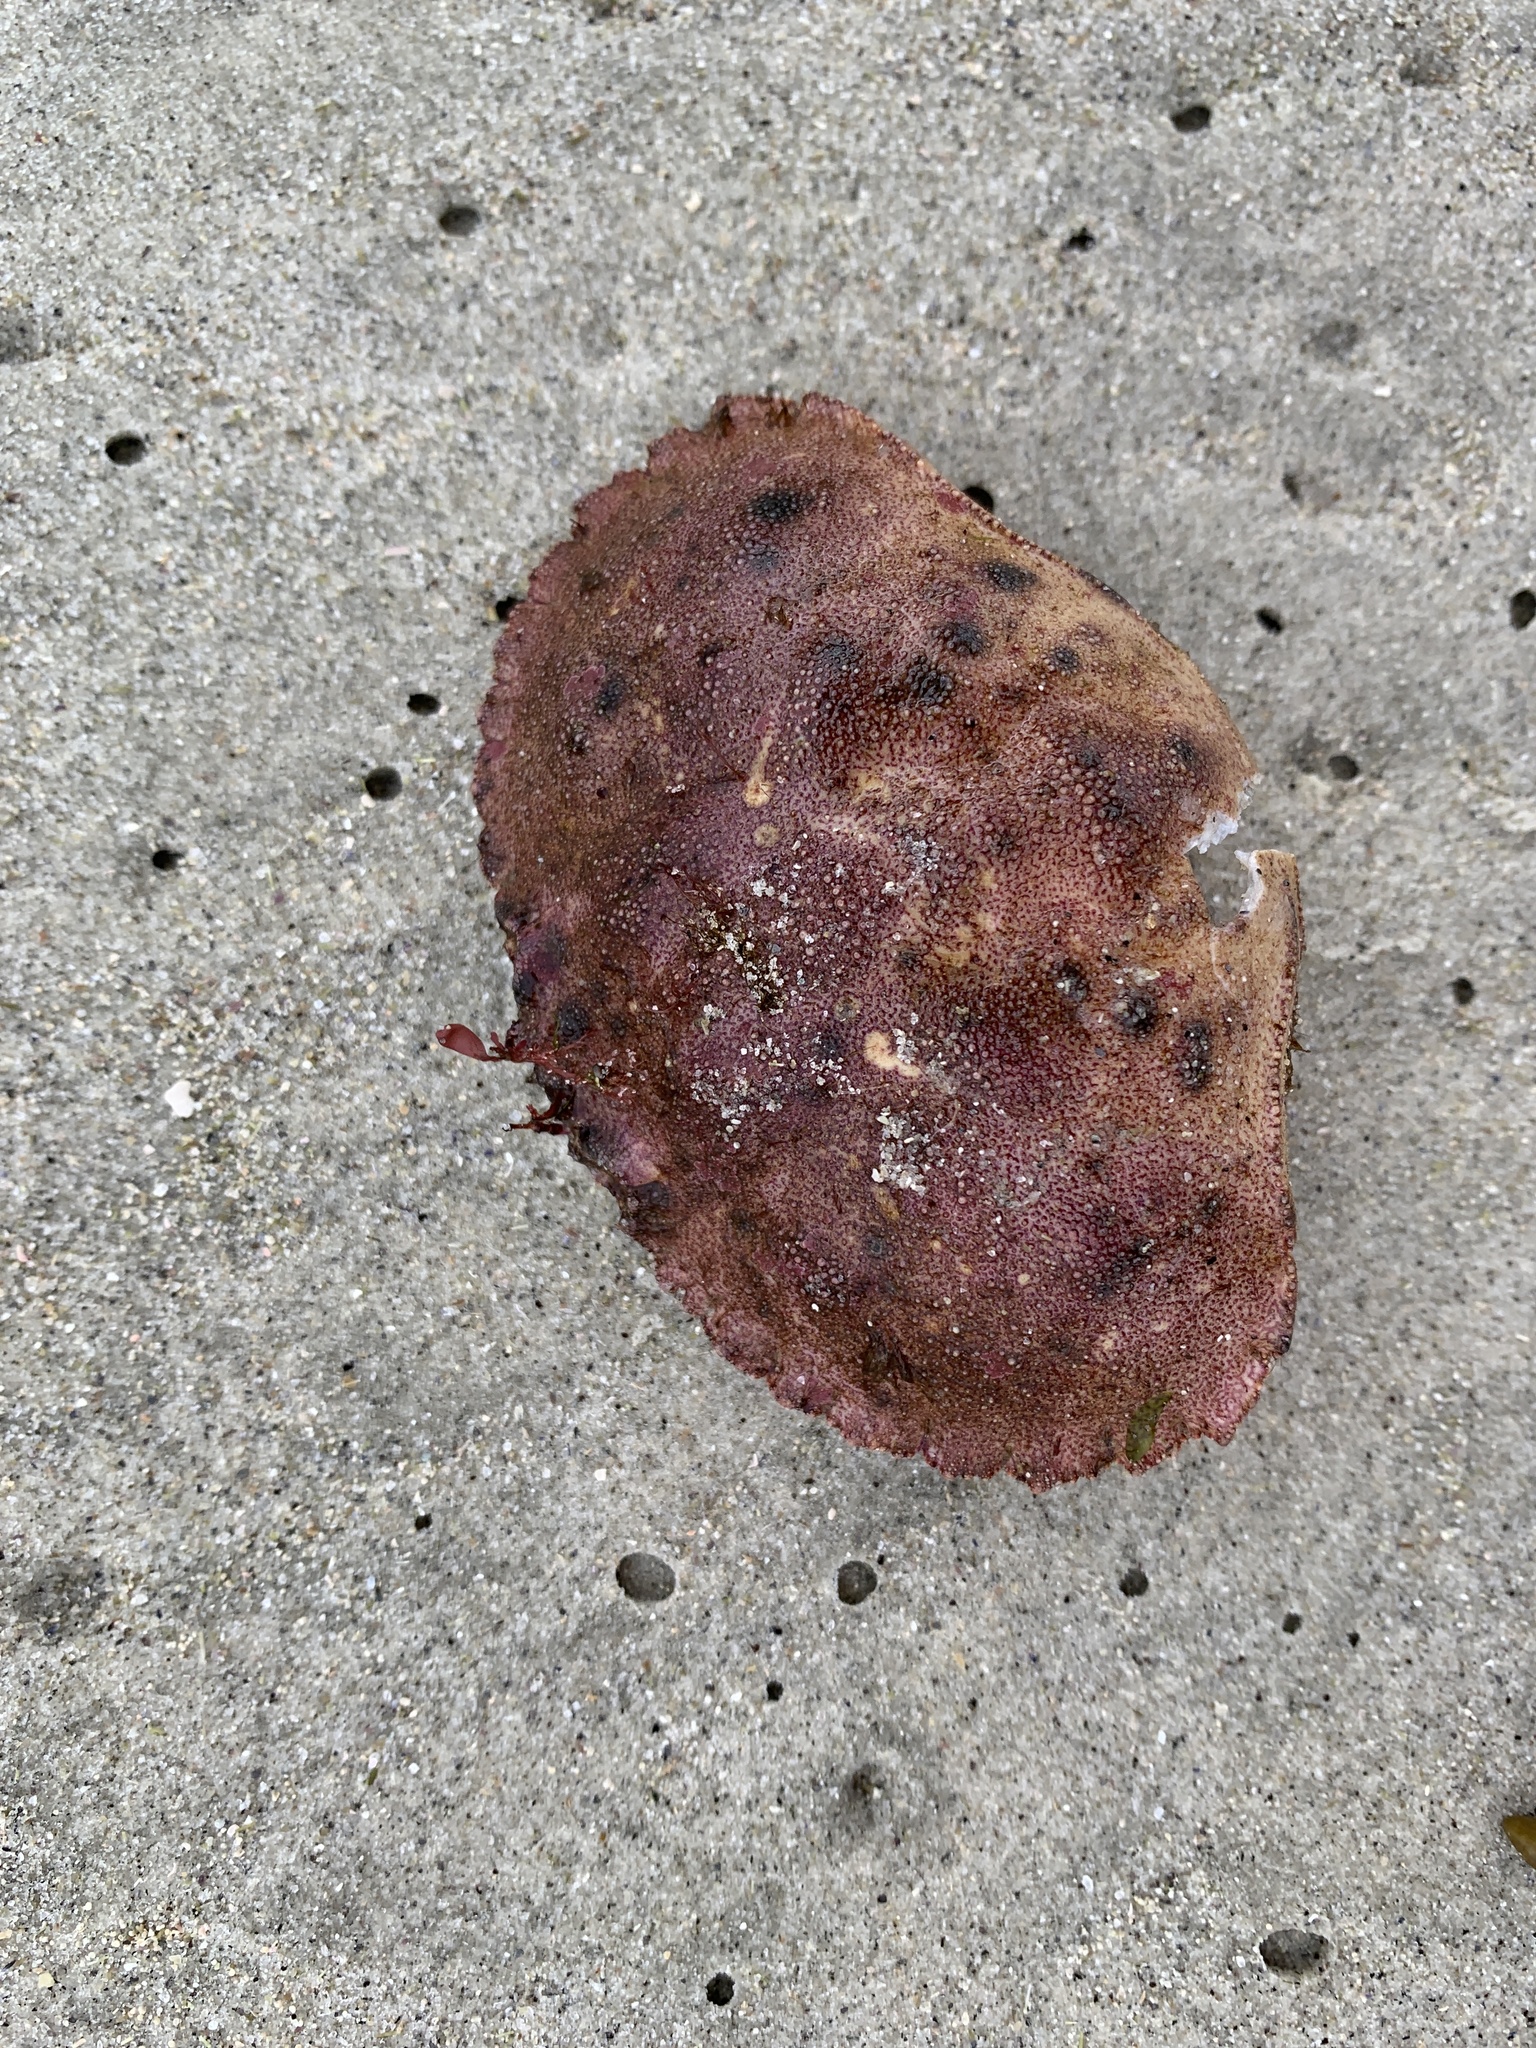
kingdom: Animalia
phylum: Arthropoda
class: Malacostraca
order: Decapoda
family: Cancridae
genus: Cancer
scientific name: Cancer borealis
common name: Jonah crab
